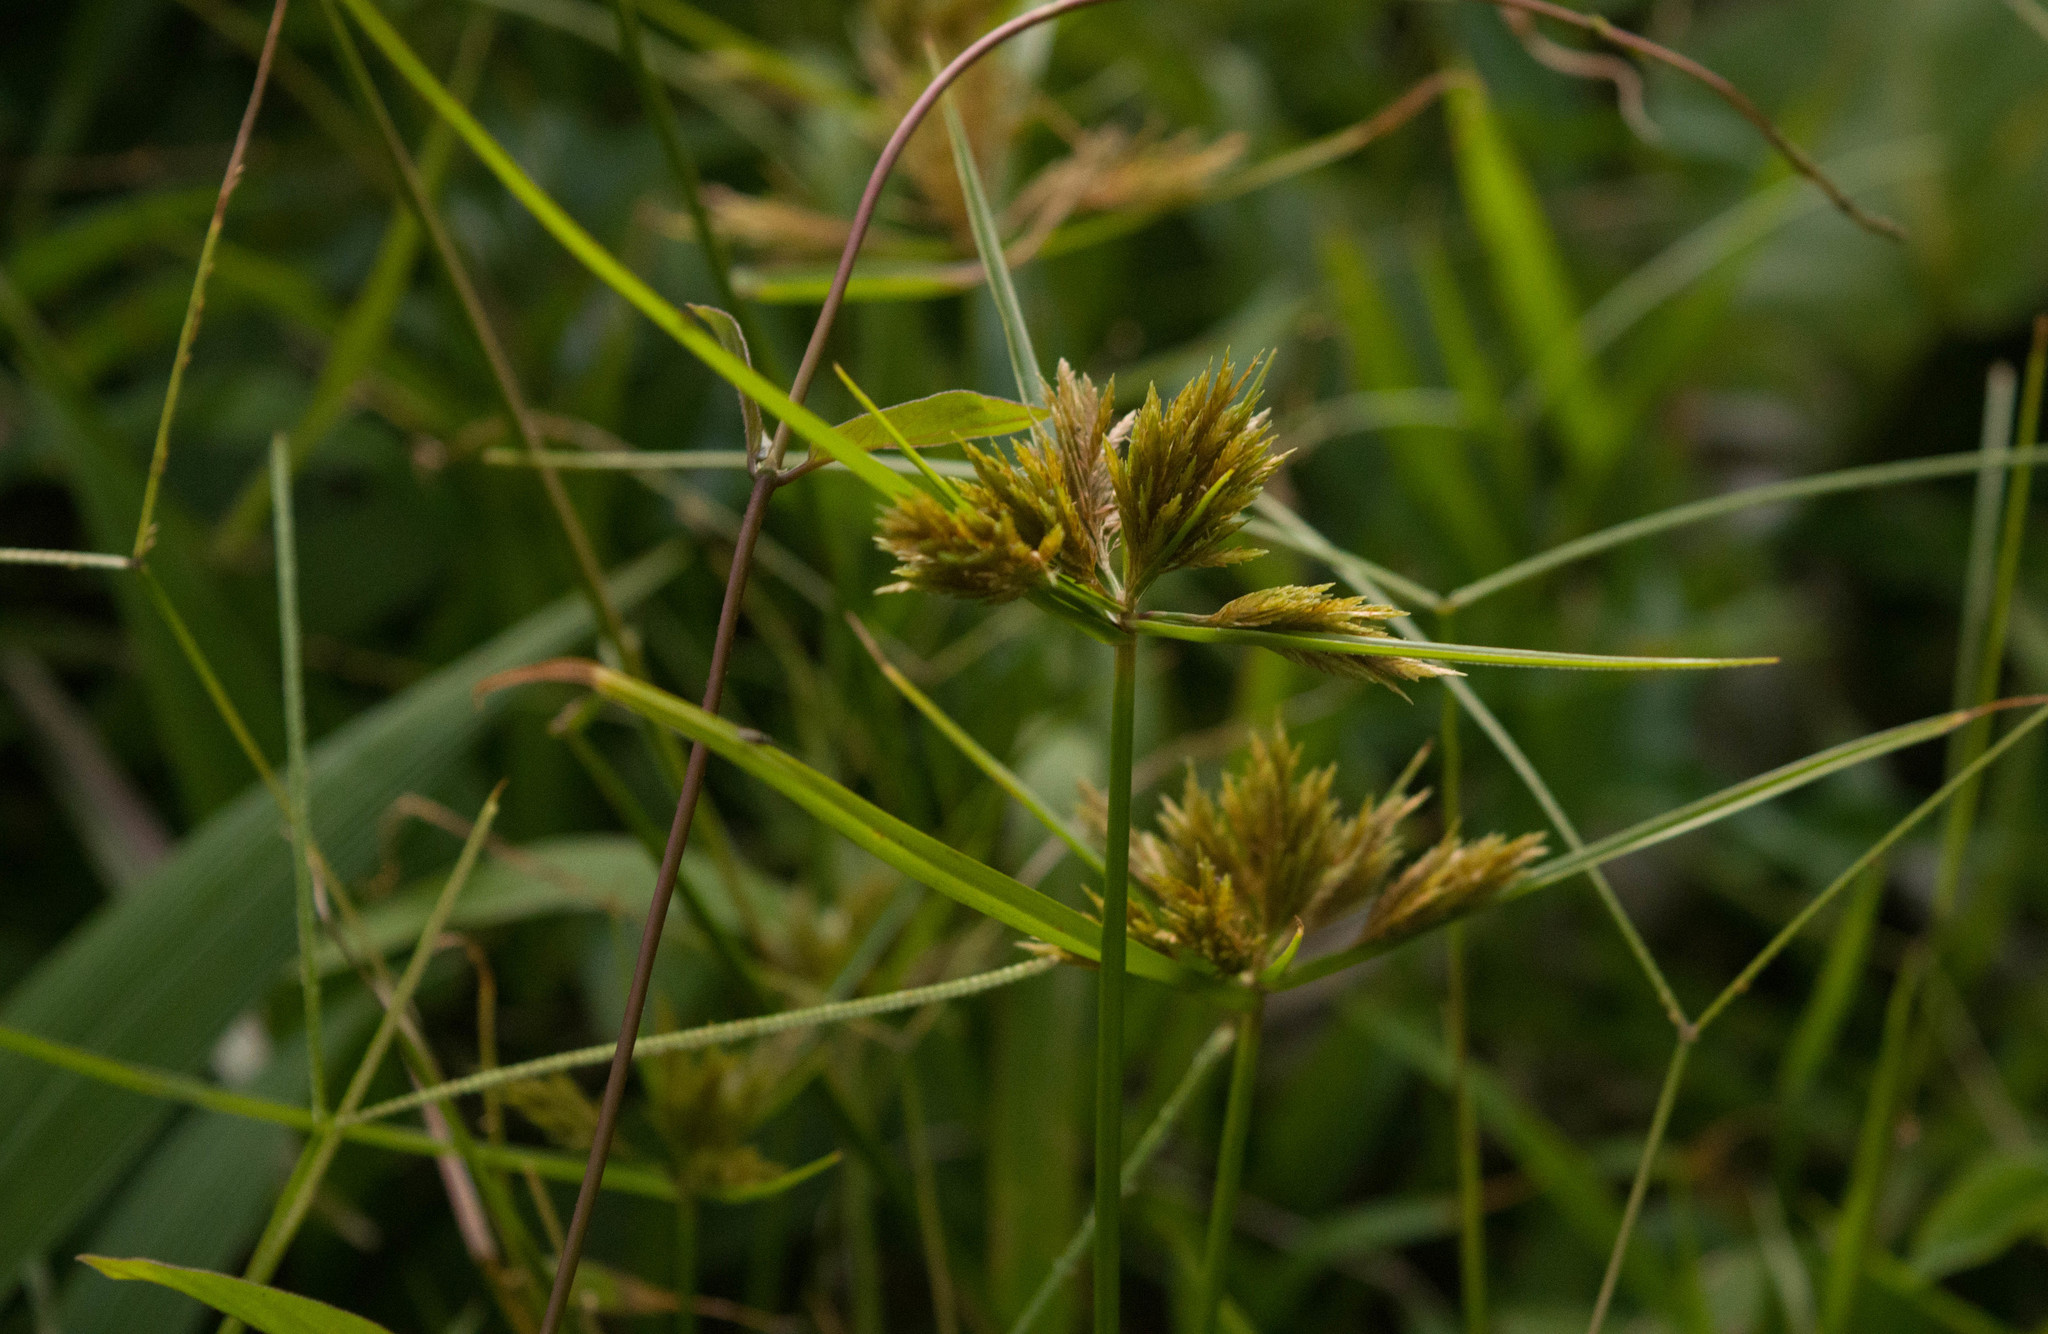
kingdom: Plantae
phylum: Tracheophyta
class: Liliopsida
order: Poales
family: Cyperaceae
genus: Cyperus
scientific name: Cyperus polystachyos
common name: Bunchy flat sedge
